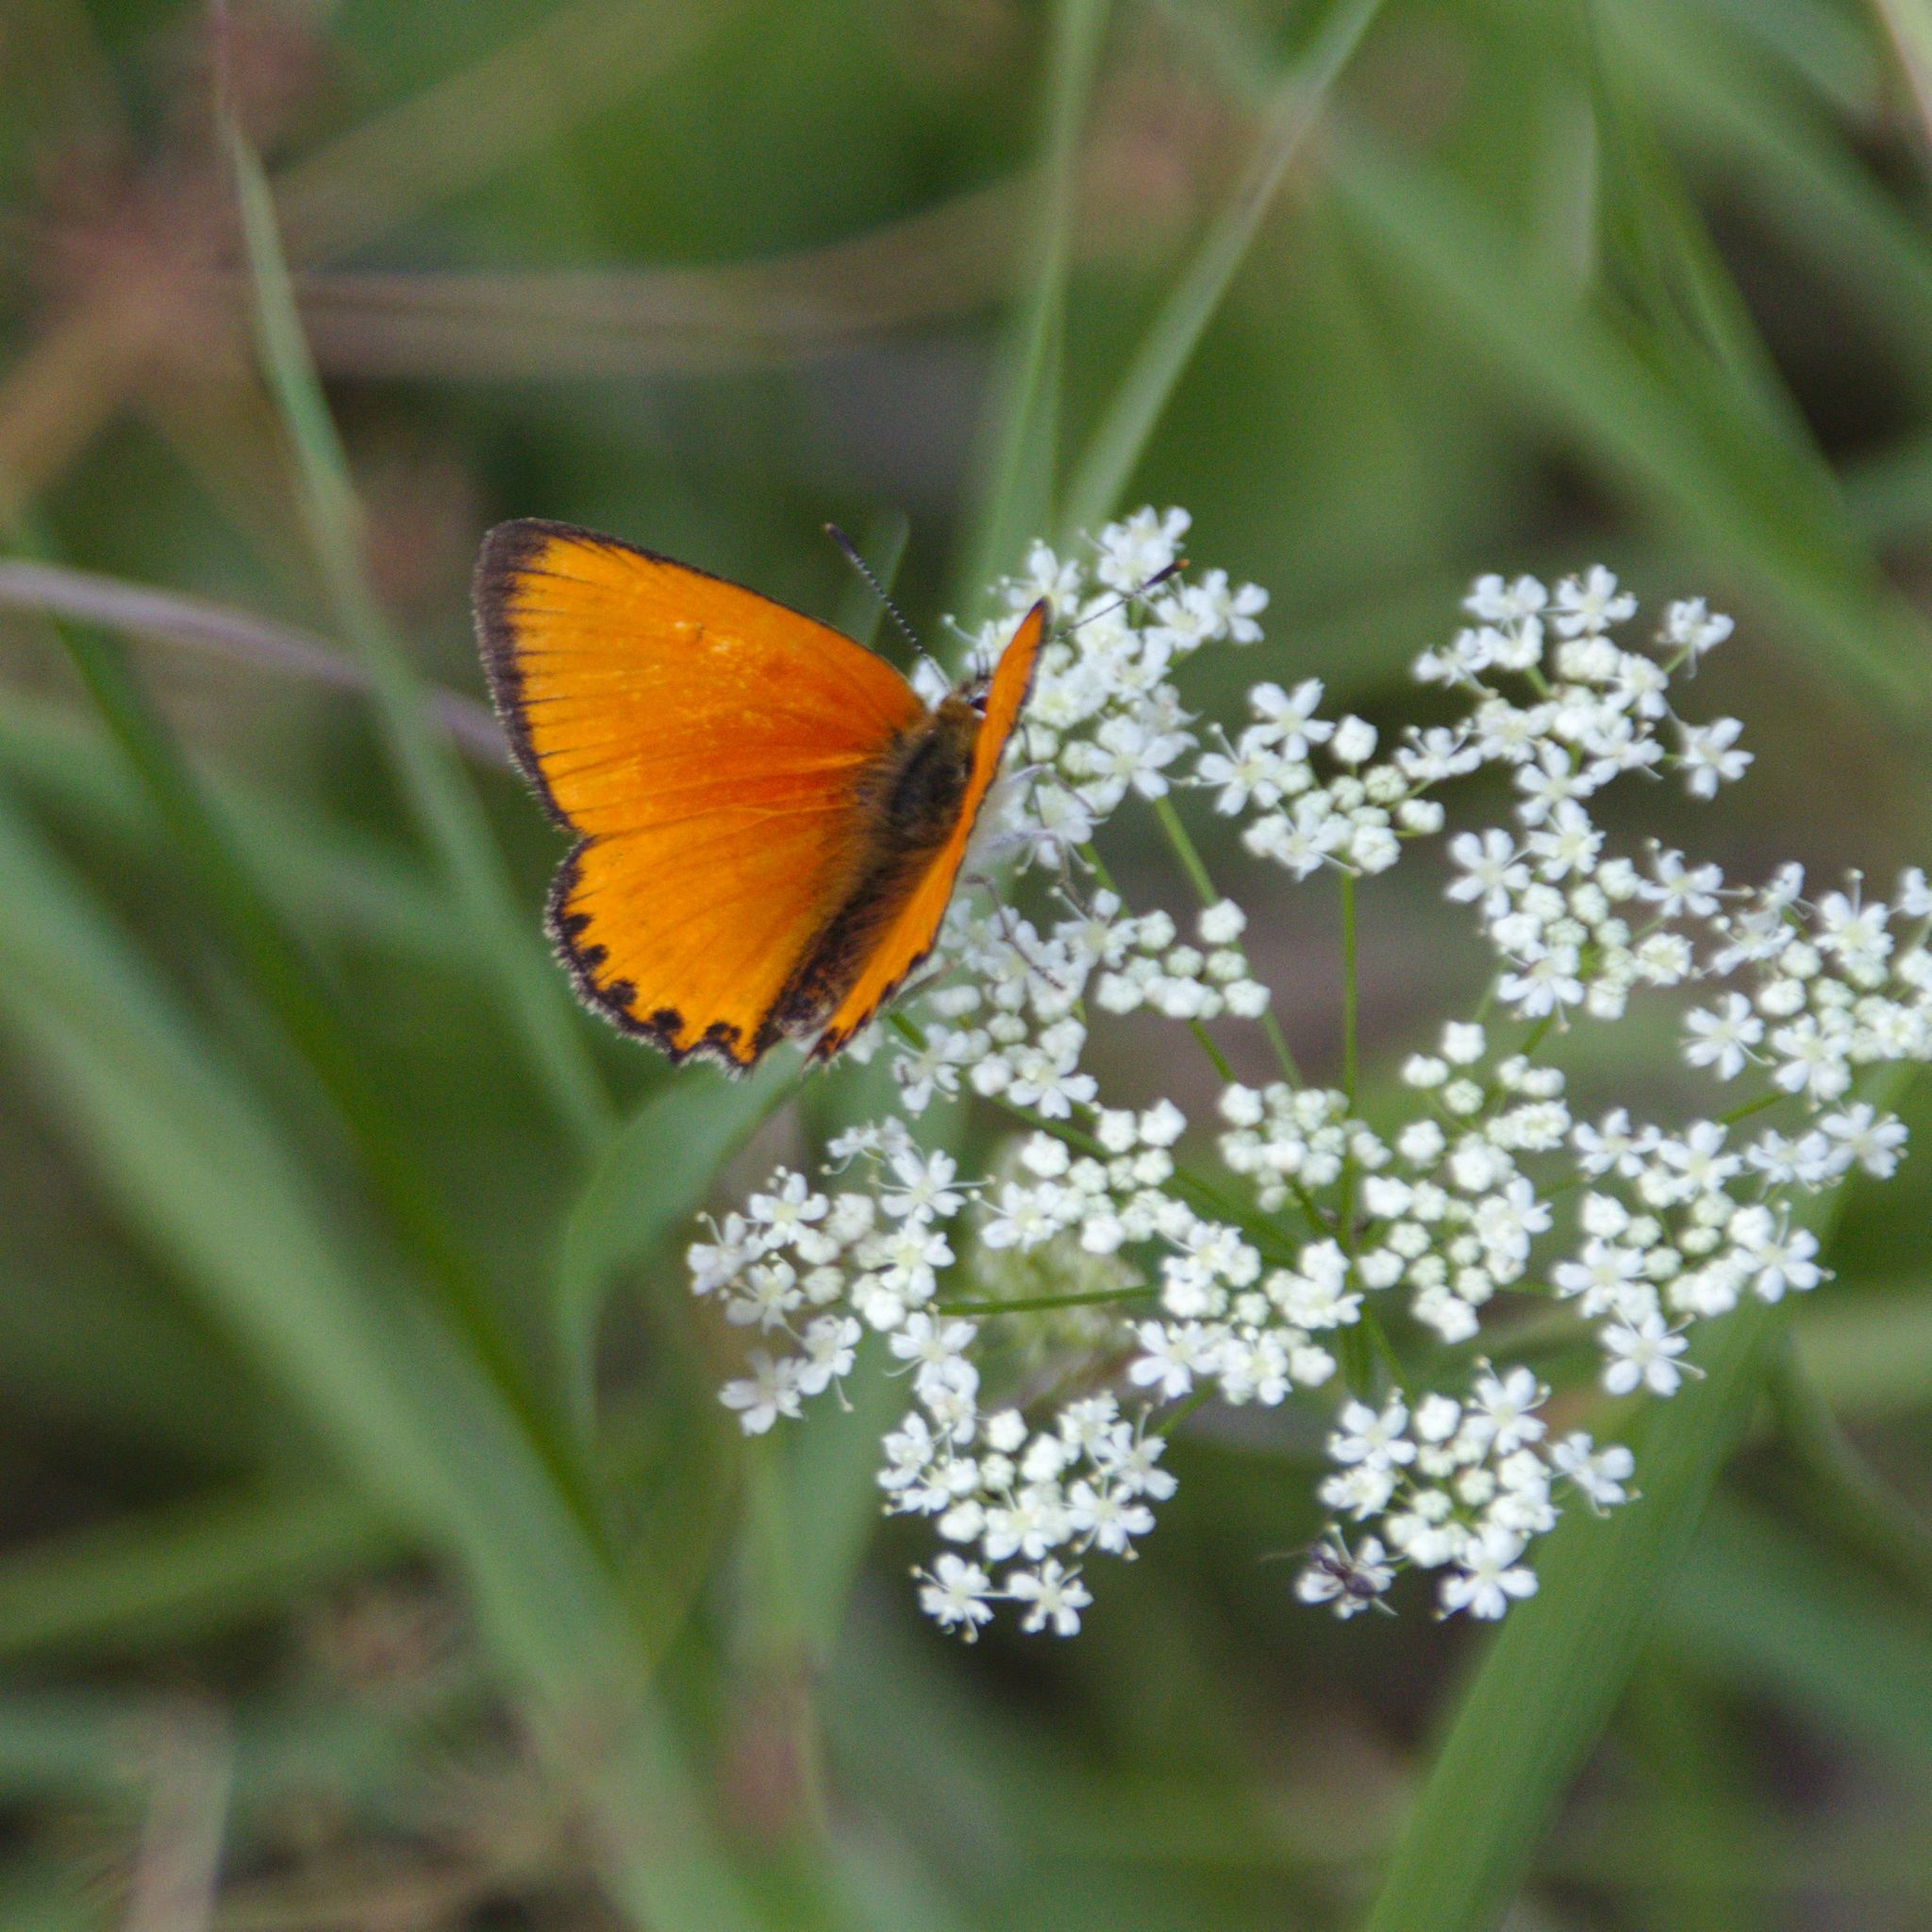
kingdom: Animalia
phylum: Arthropoda
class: Insecta
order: Lepidoptera
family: Lycaenidae
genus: Lycaena
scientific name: Lycaena virgaureae
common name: Scarce copper
